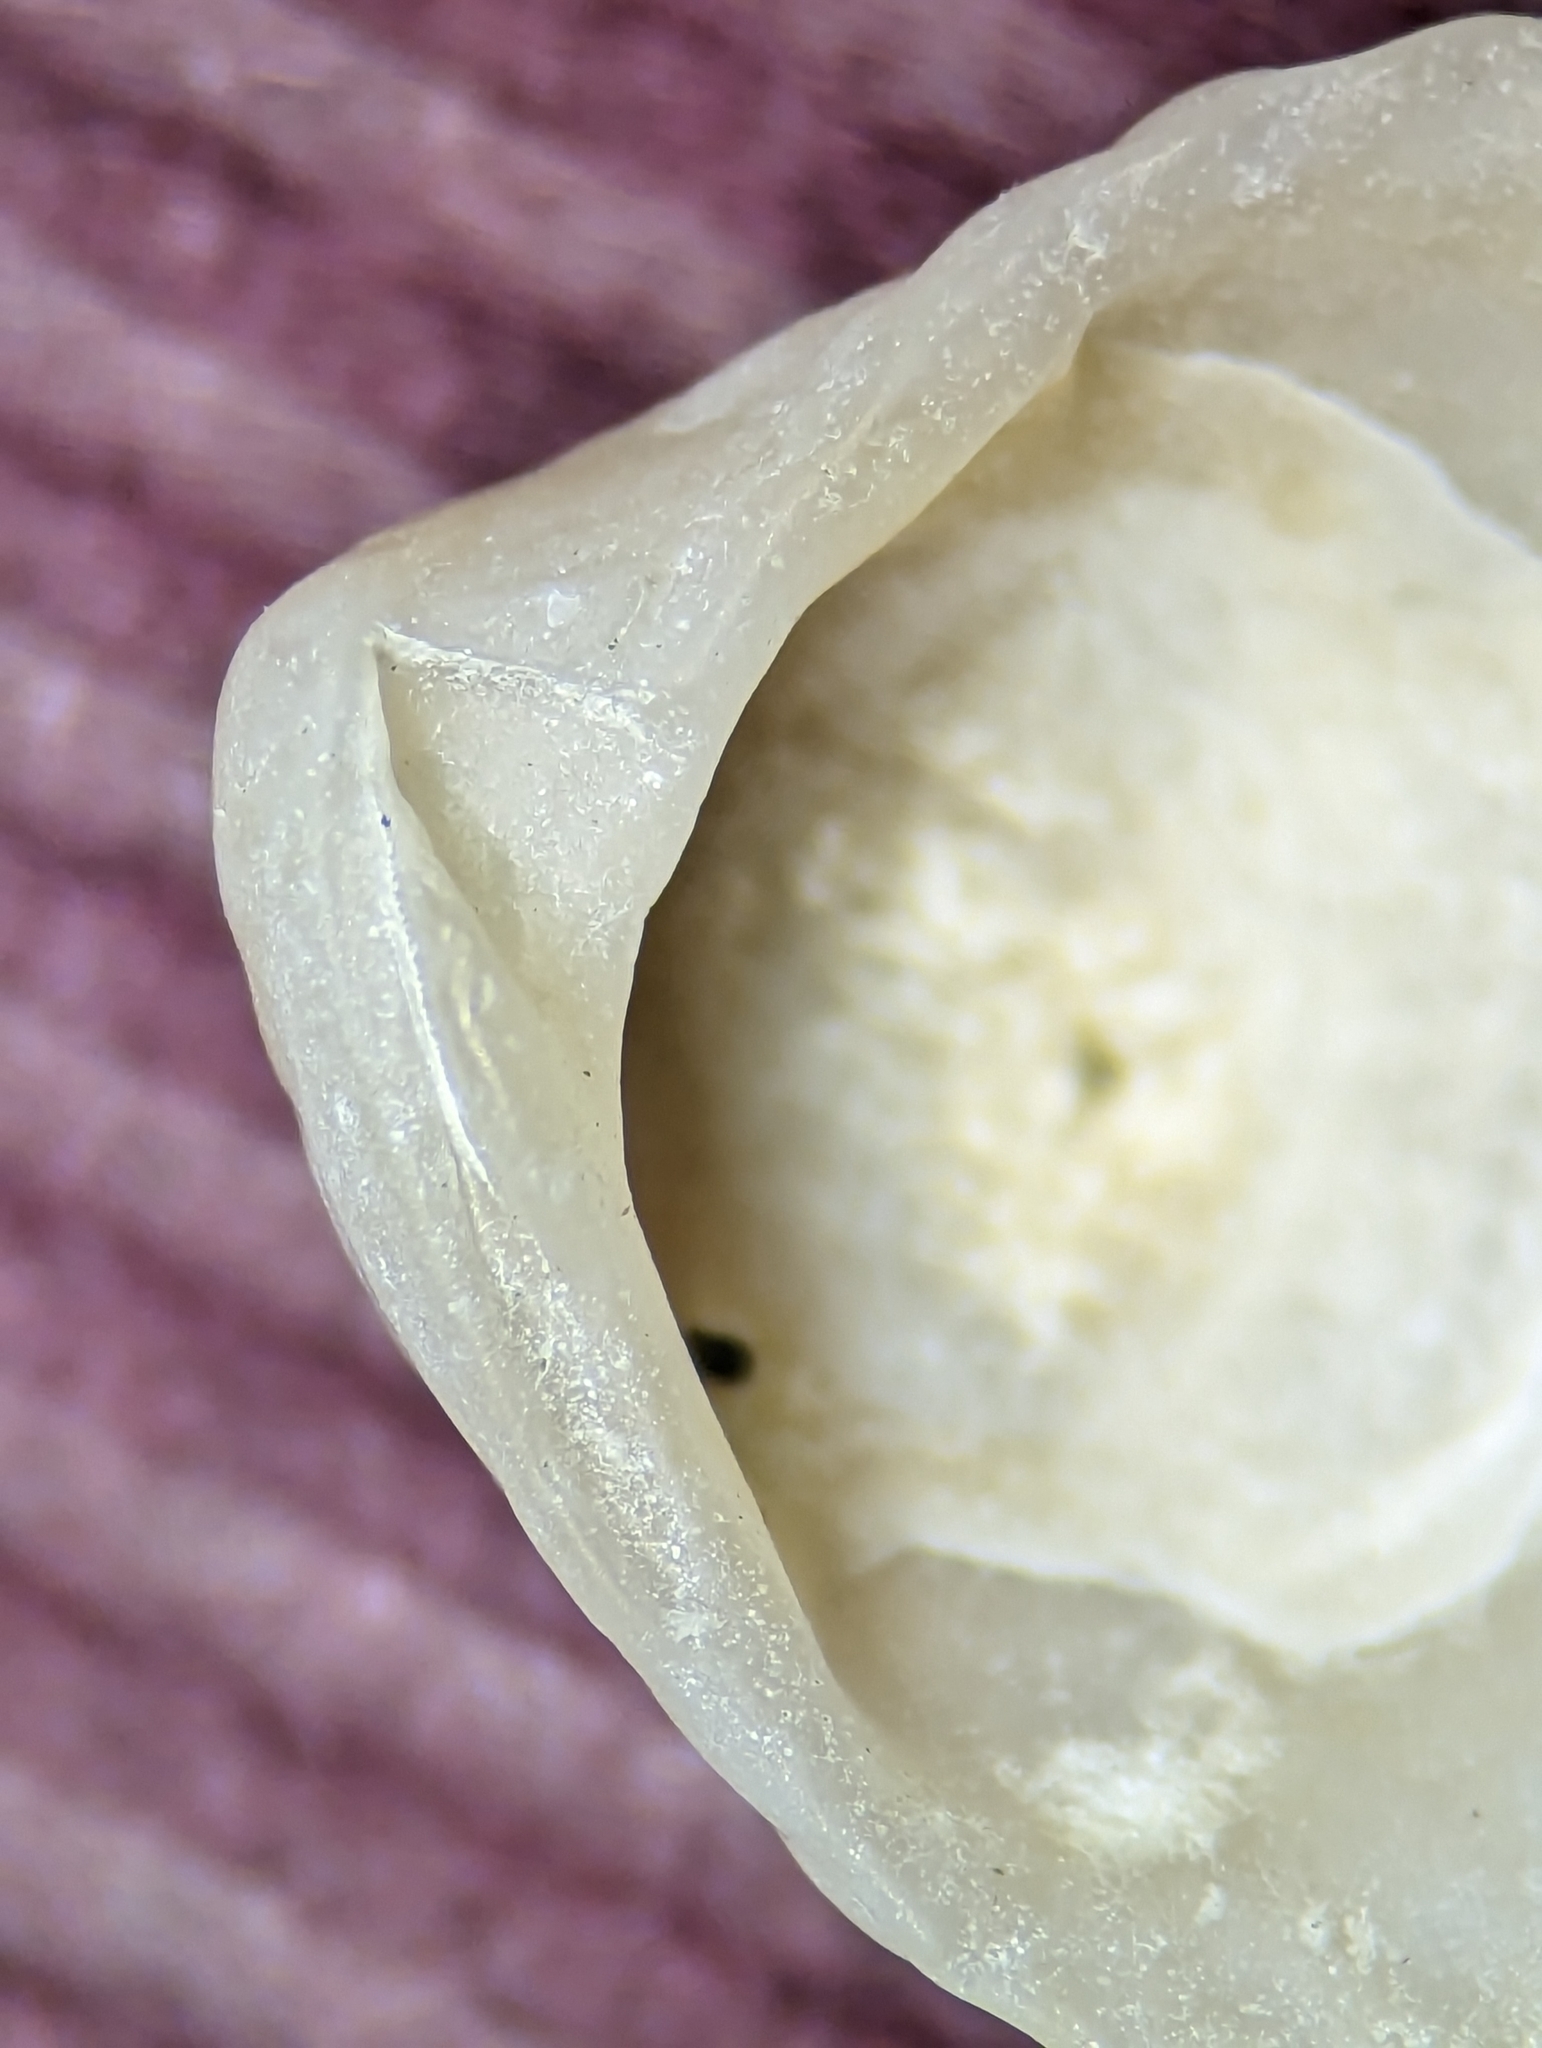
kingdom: Animalia
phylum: Mollusca
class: Bivalvia
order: Carditida
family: Carditidae
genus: Pleuromeris
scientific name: Pleuromeris tridentata
